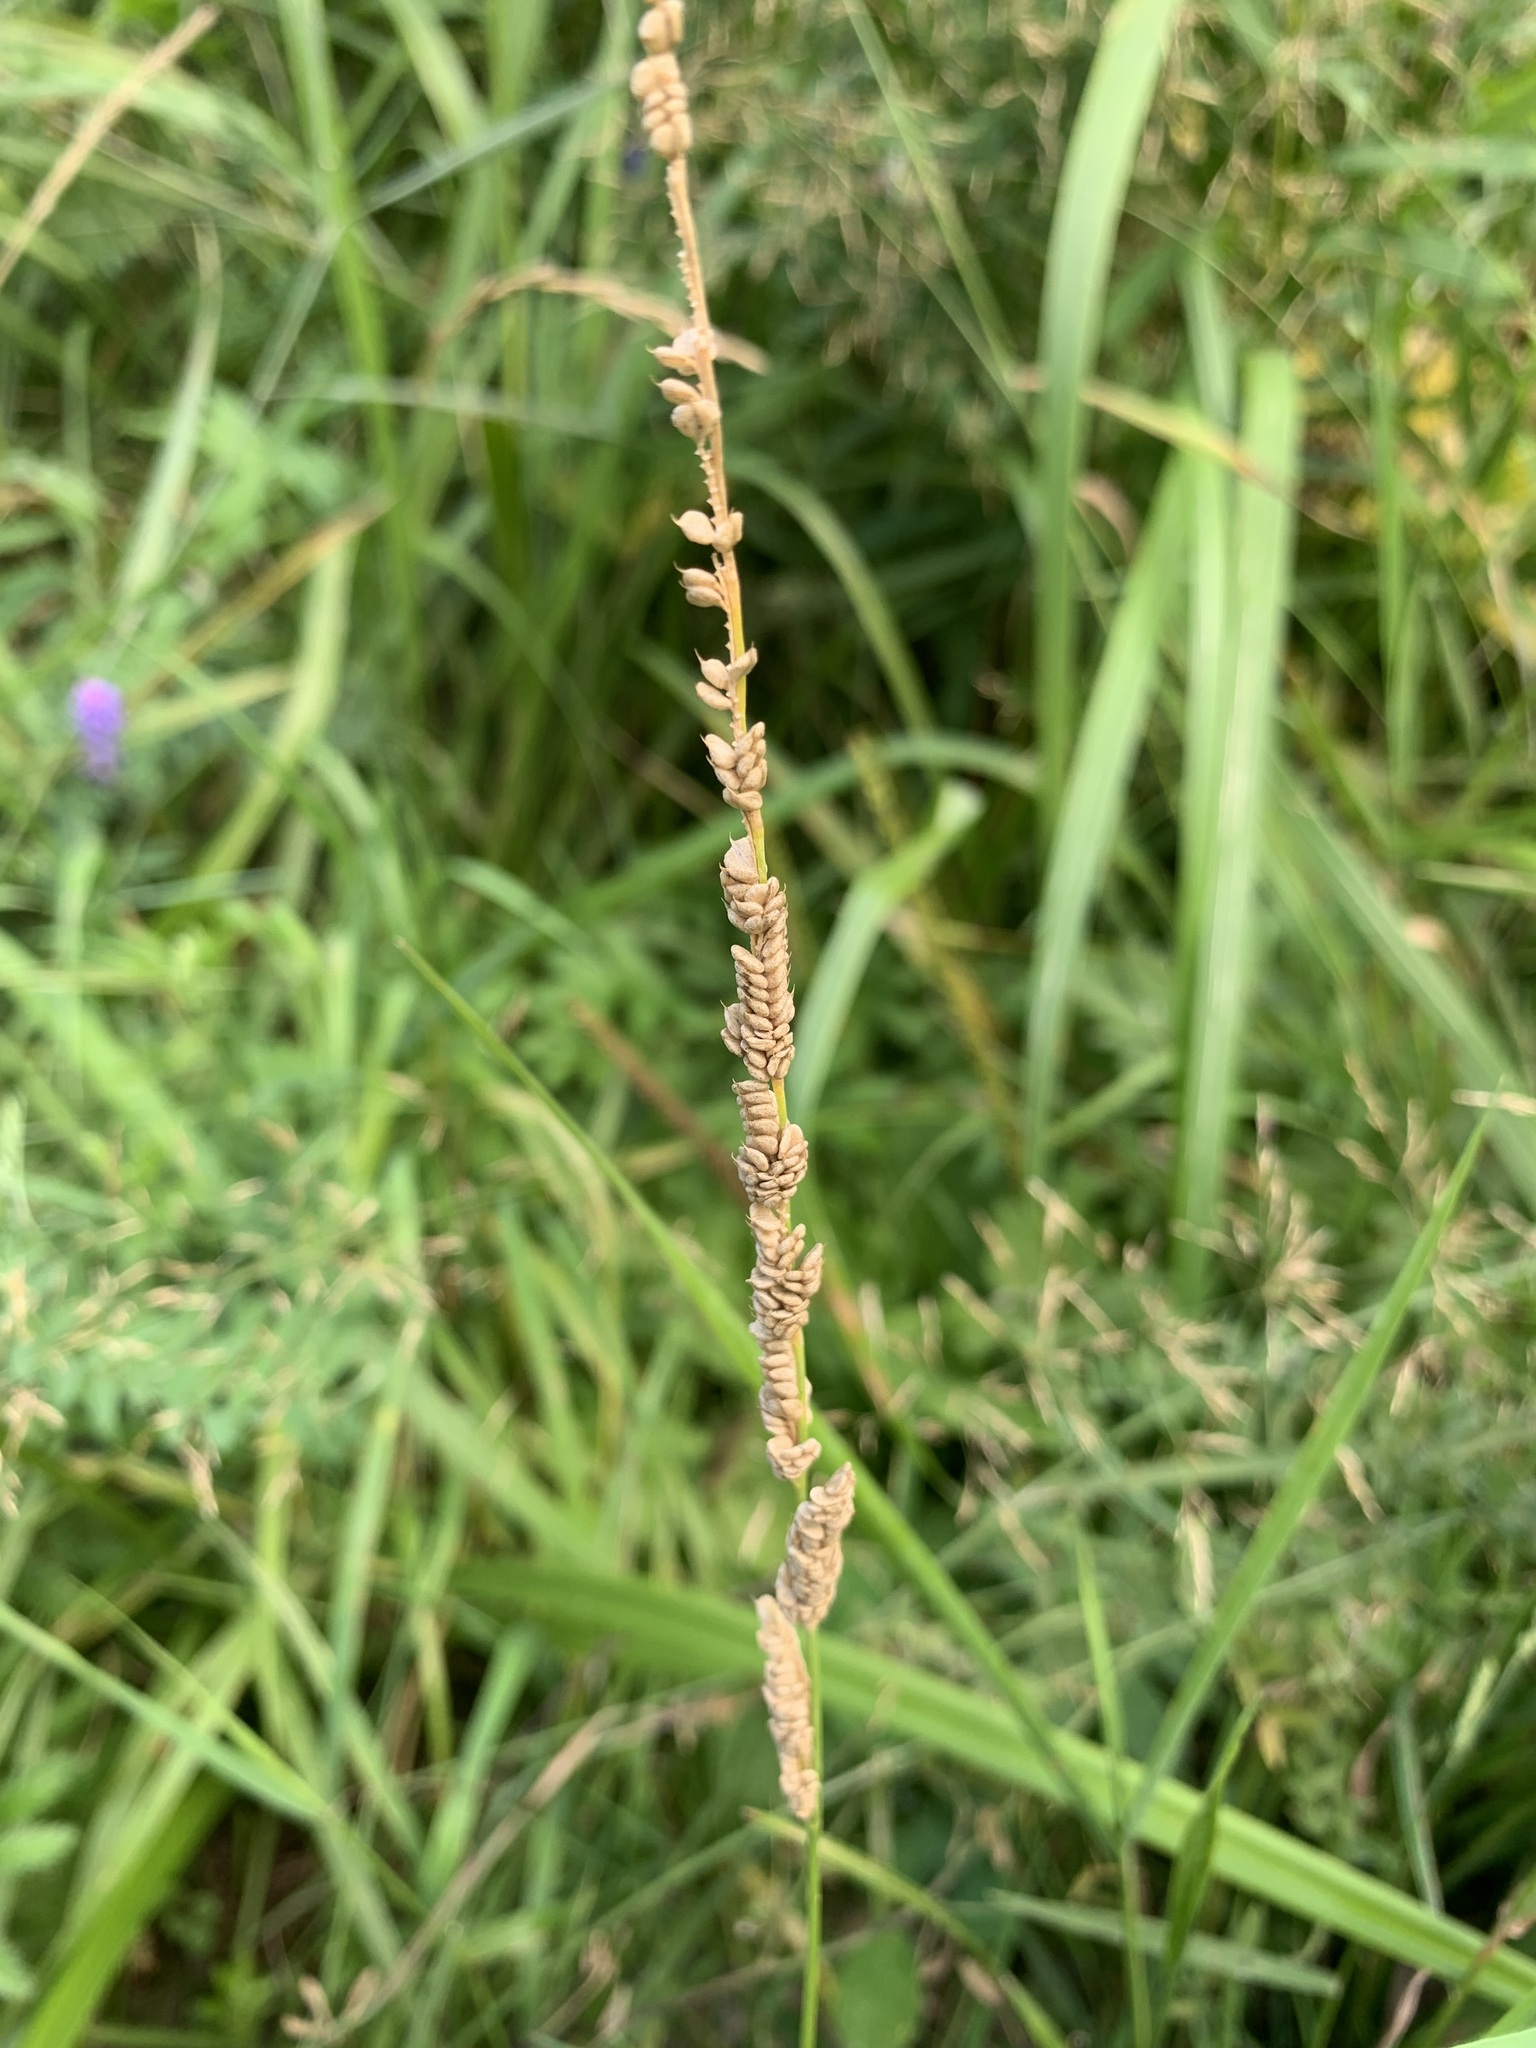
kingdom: Plantae
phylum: Tracheophyta
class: Liliopsida
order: Poales
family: Poaceae
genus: Beckmannia
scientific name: Beckmannia syzigachne
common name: American slough-grass
